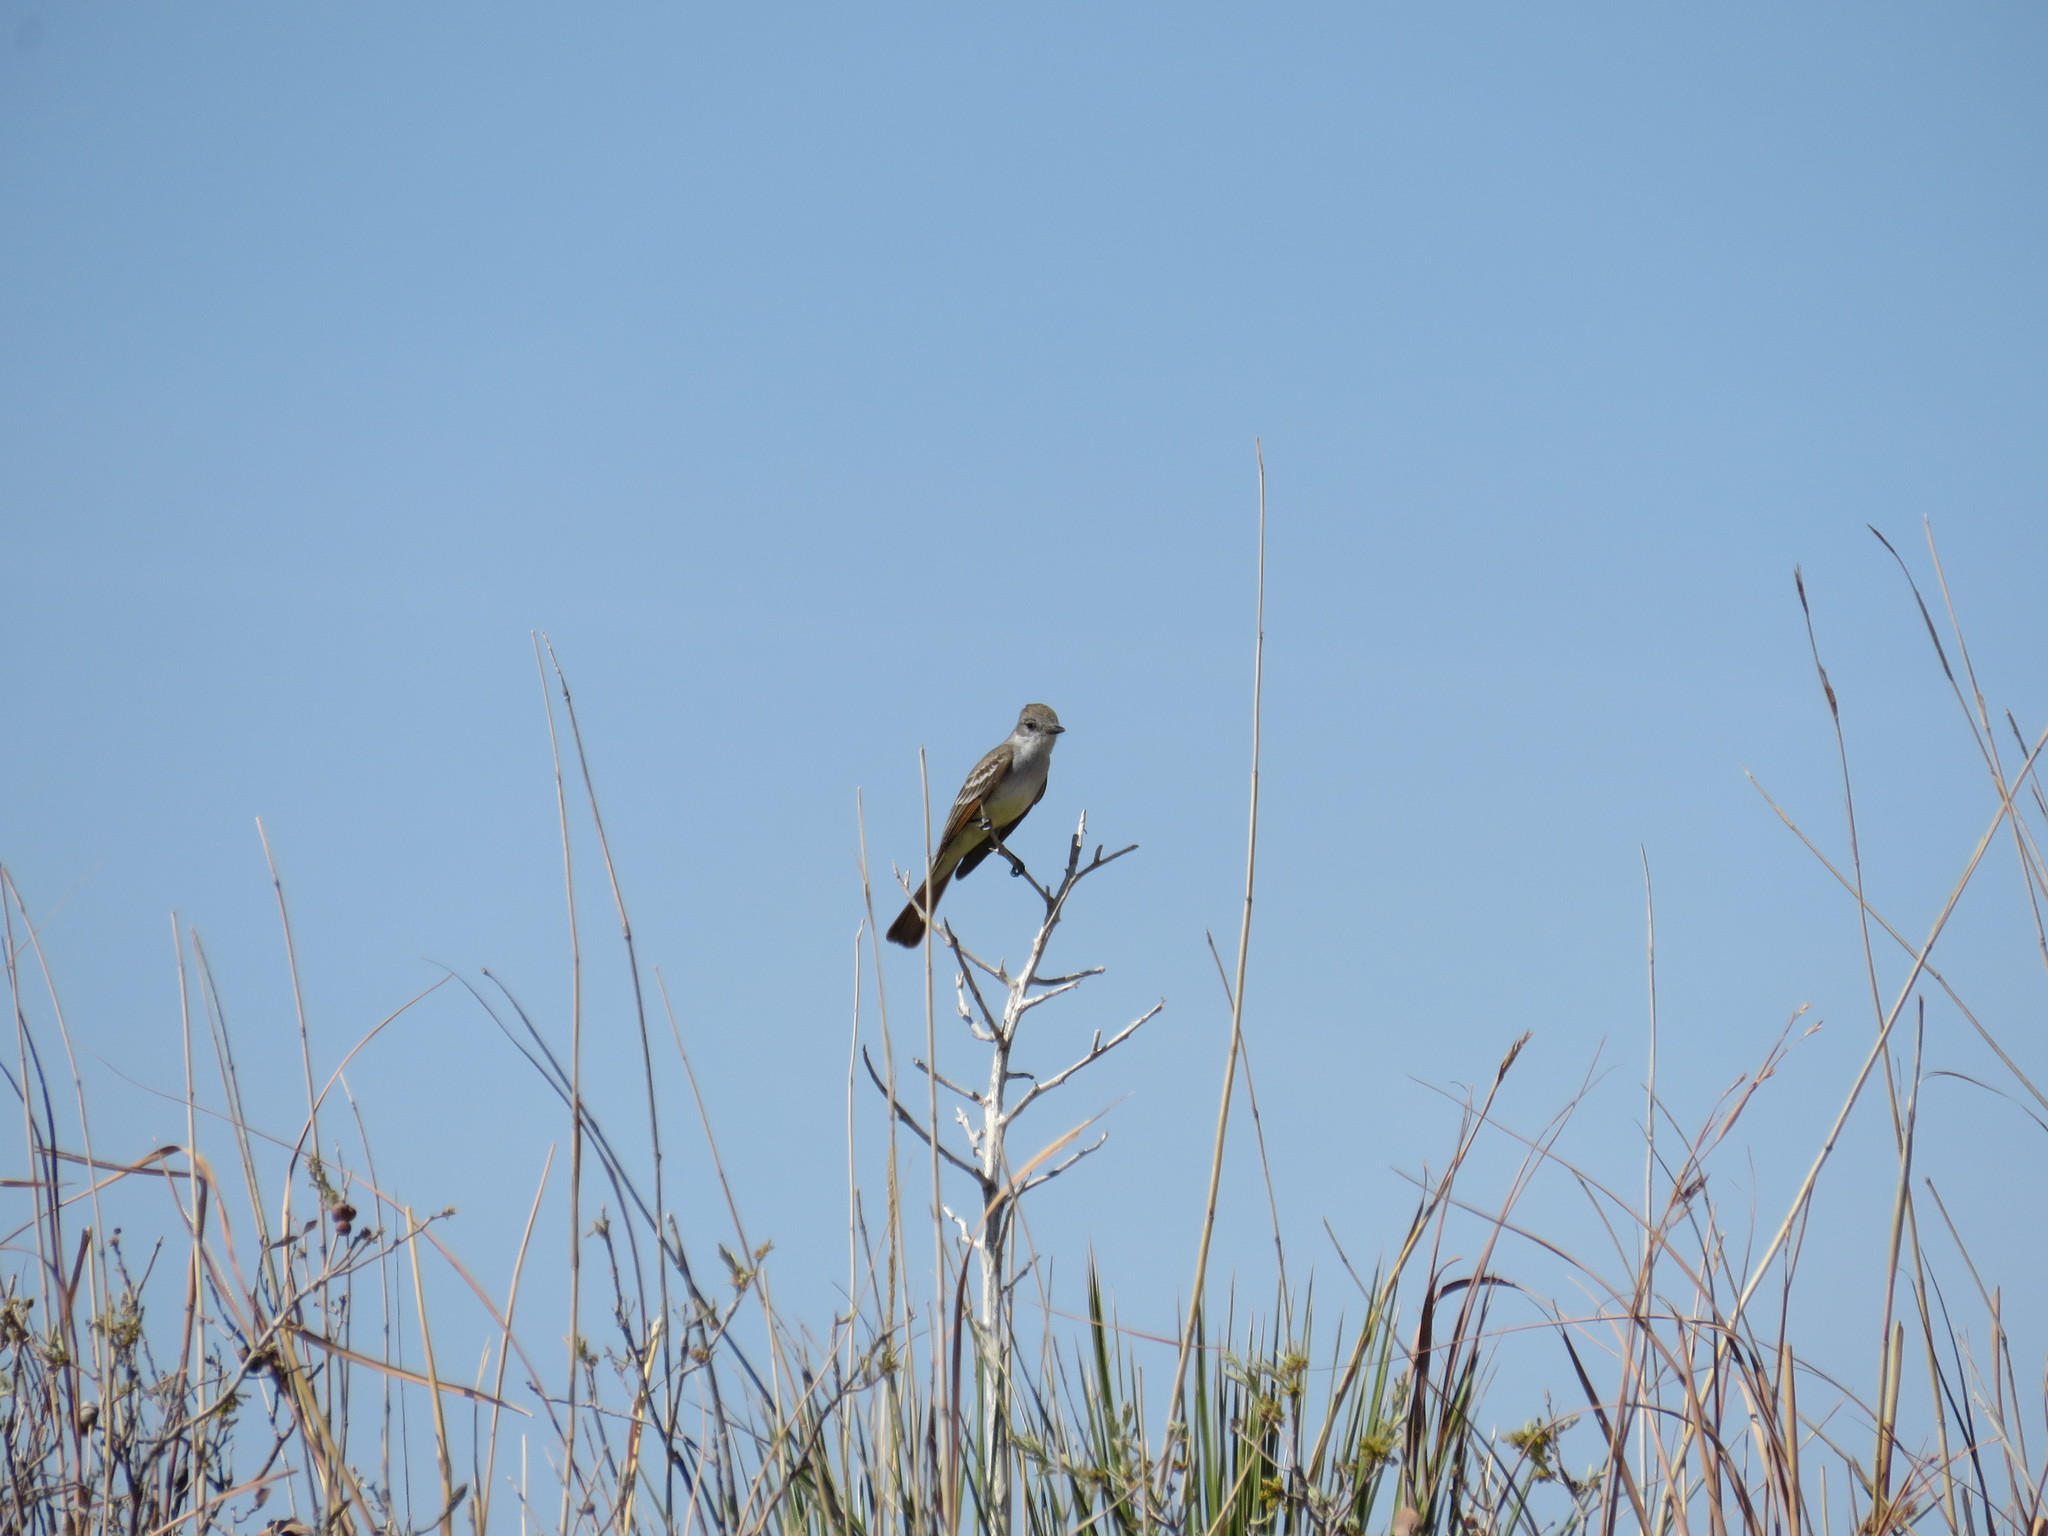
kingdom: Animalia
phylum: Chordata
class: Aves
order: Passeriformes
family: Tyrannidae
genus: Myiarchus
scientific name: Myiarchus cinerascens
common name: Ash-throated flycatcher
